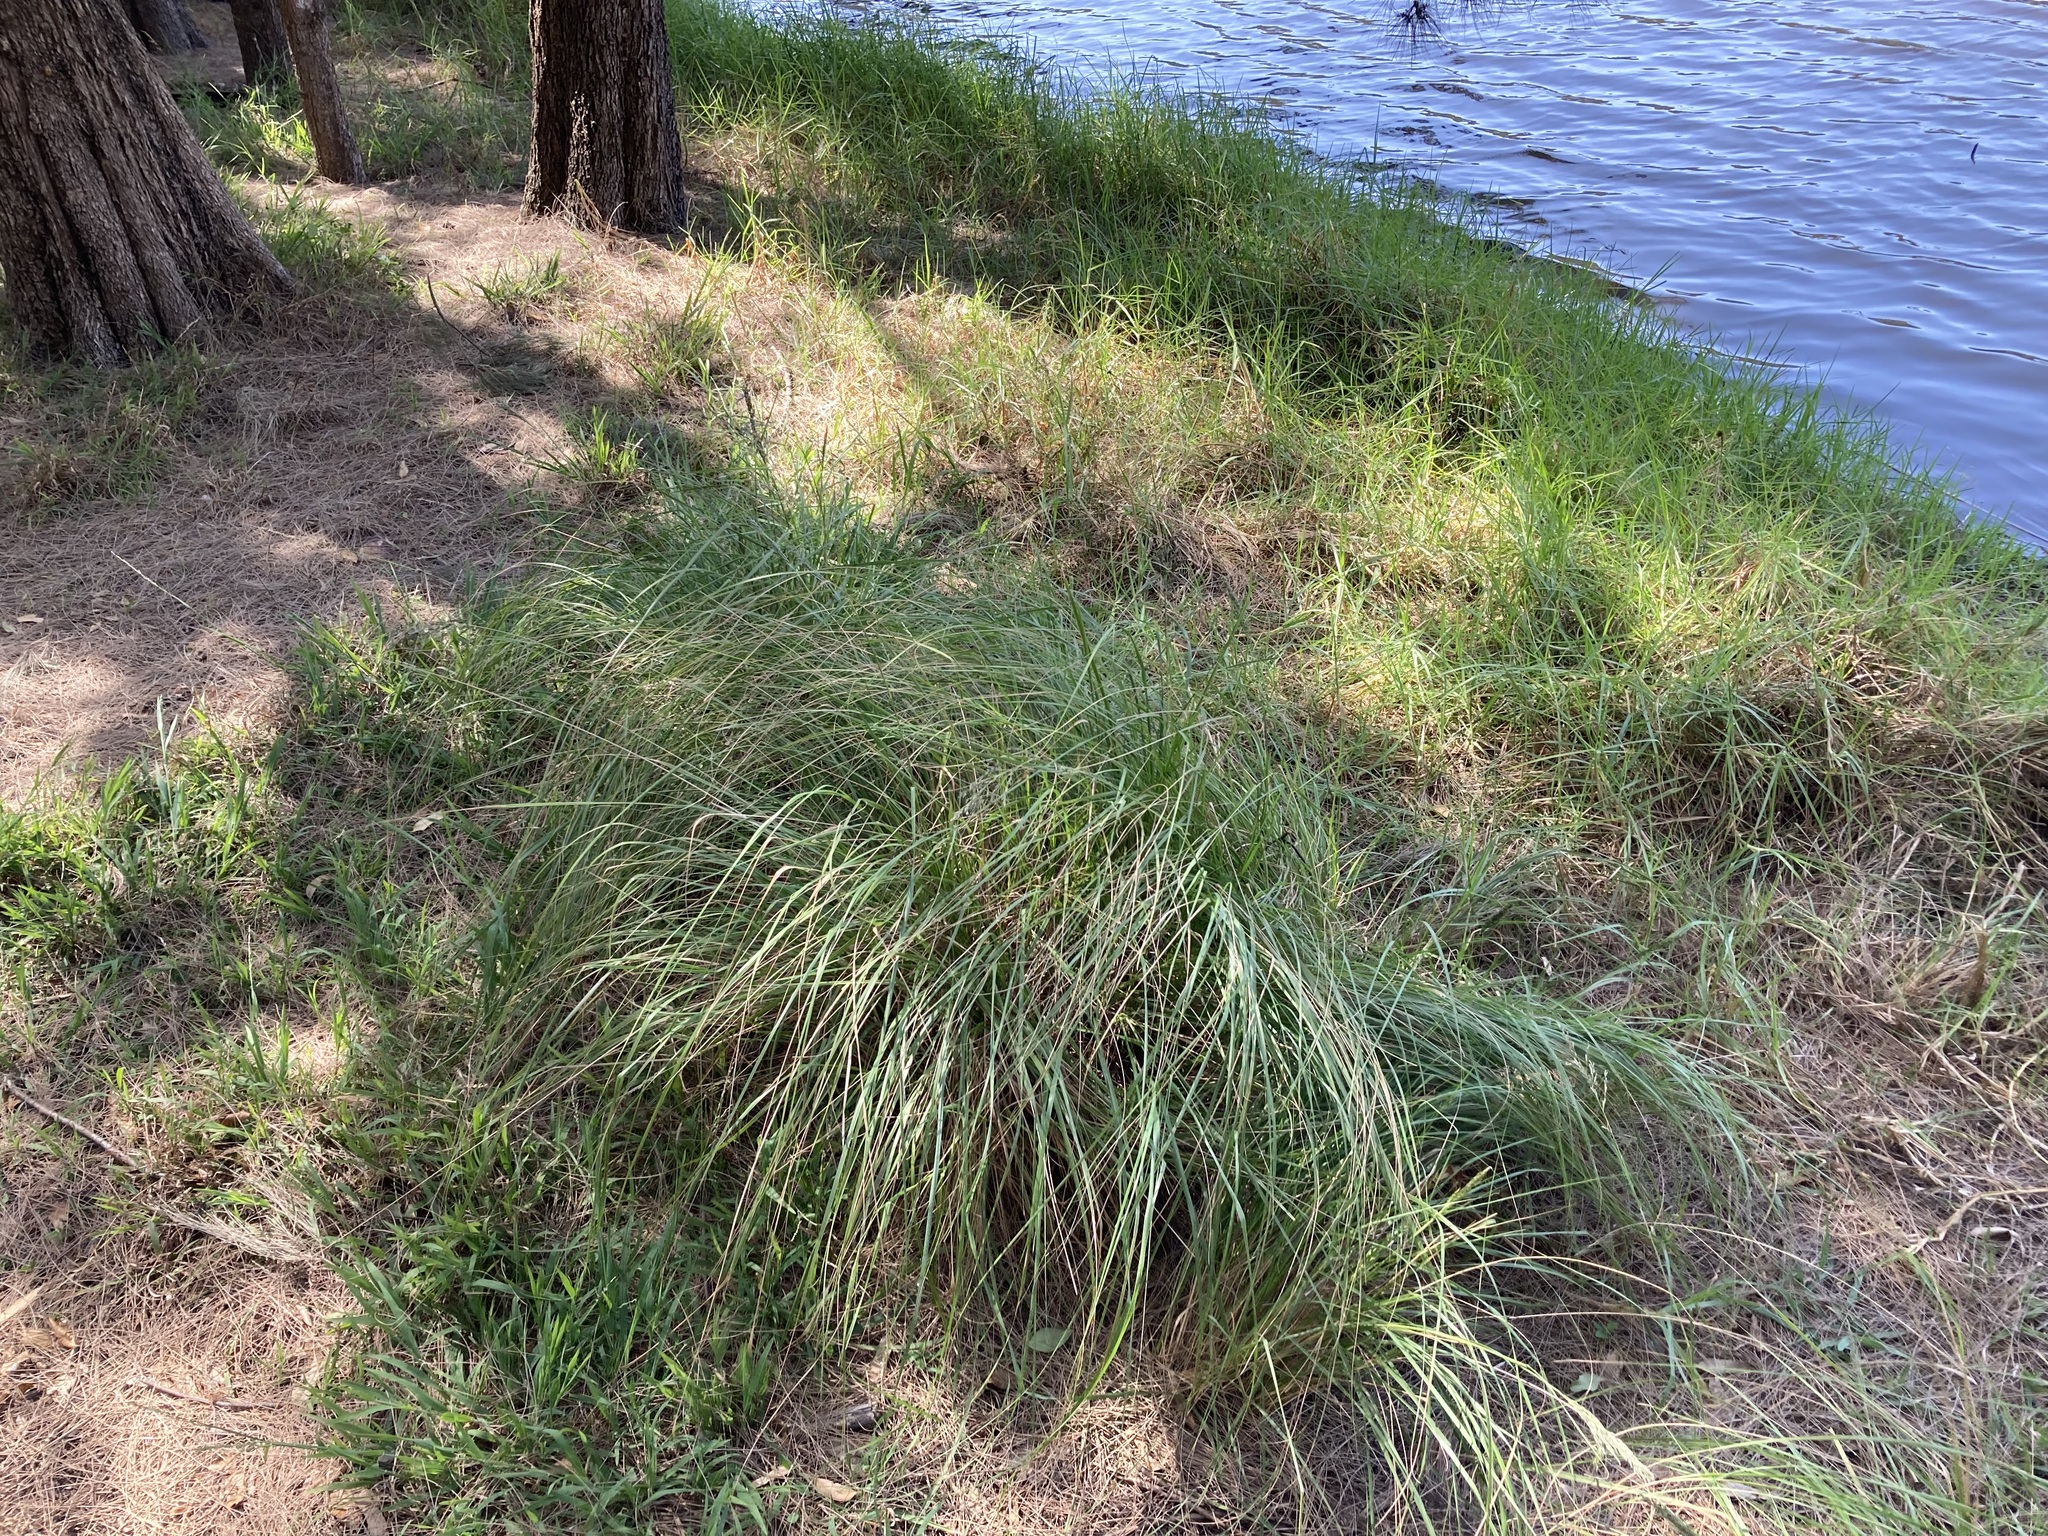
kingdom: Plantae
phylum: Tracheophyta
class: Liliopsida
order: Poales
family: Poaceae
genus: Eragrostis
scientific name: Eragrostis curvula
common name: African love-grass
